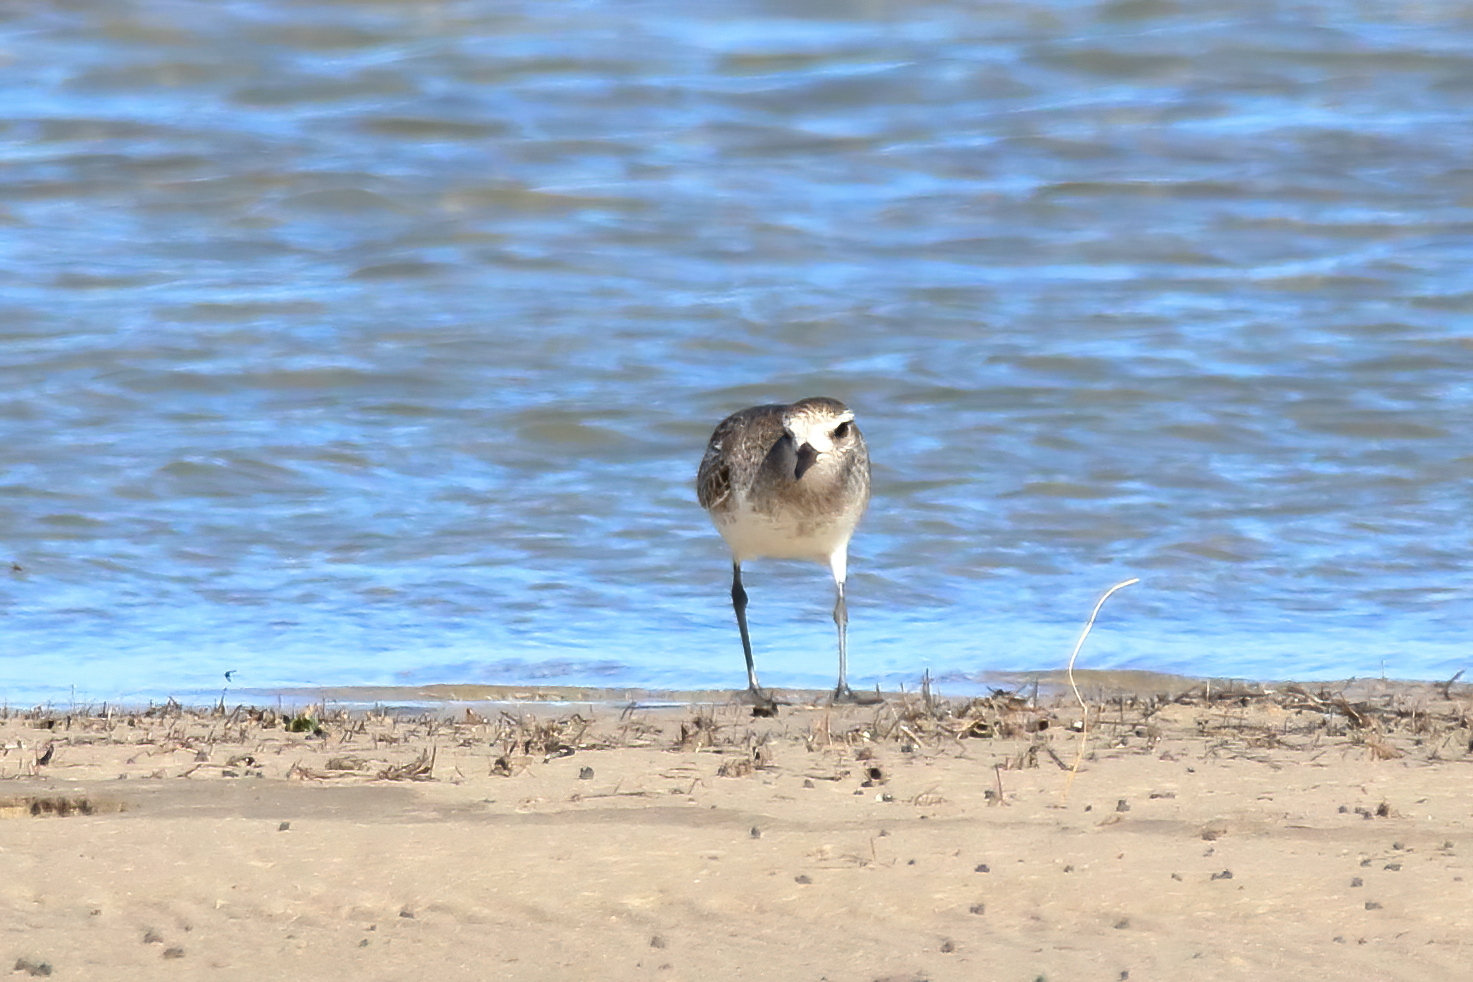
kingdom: Animalia
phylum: Chordata
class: Aves
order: Charadriiformes
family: Charadriidae
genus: Pluvialis
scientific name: Pluvialis squatarola
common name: Grey plover
